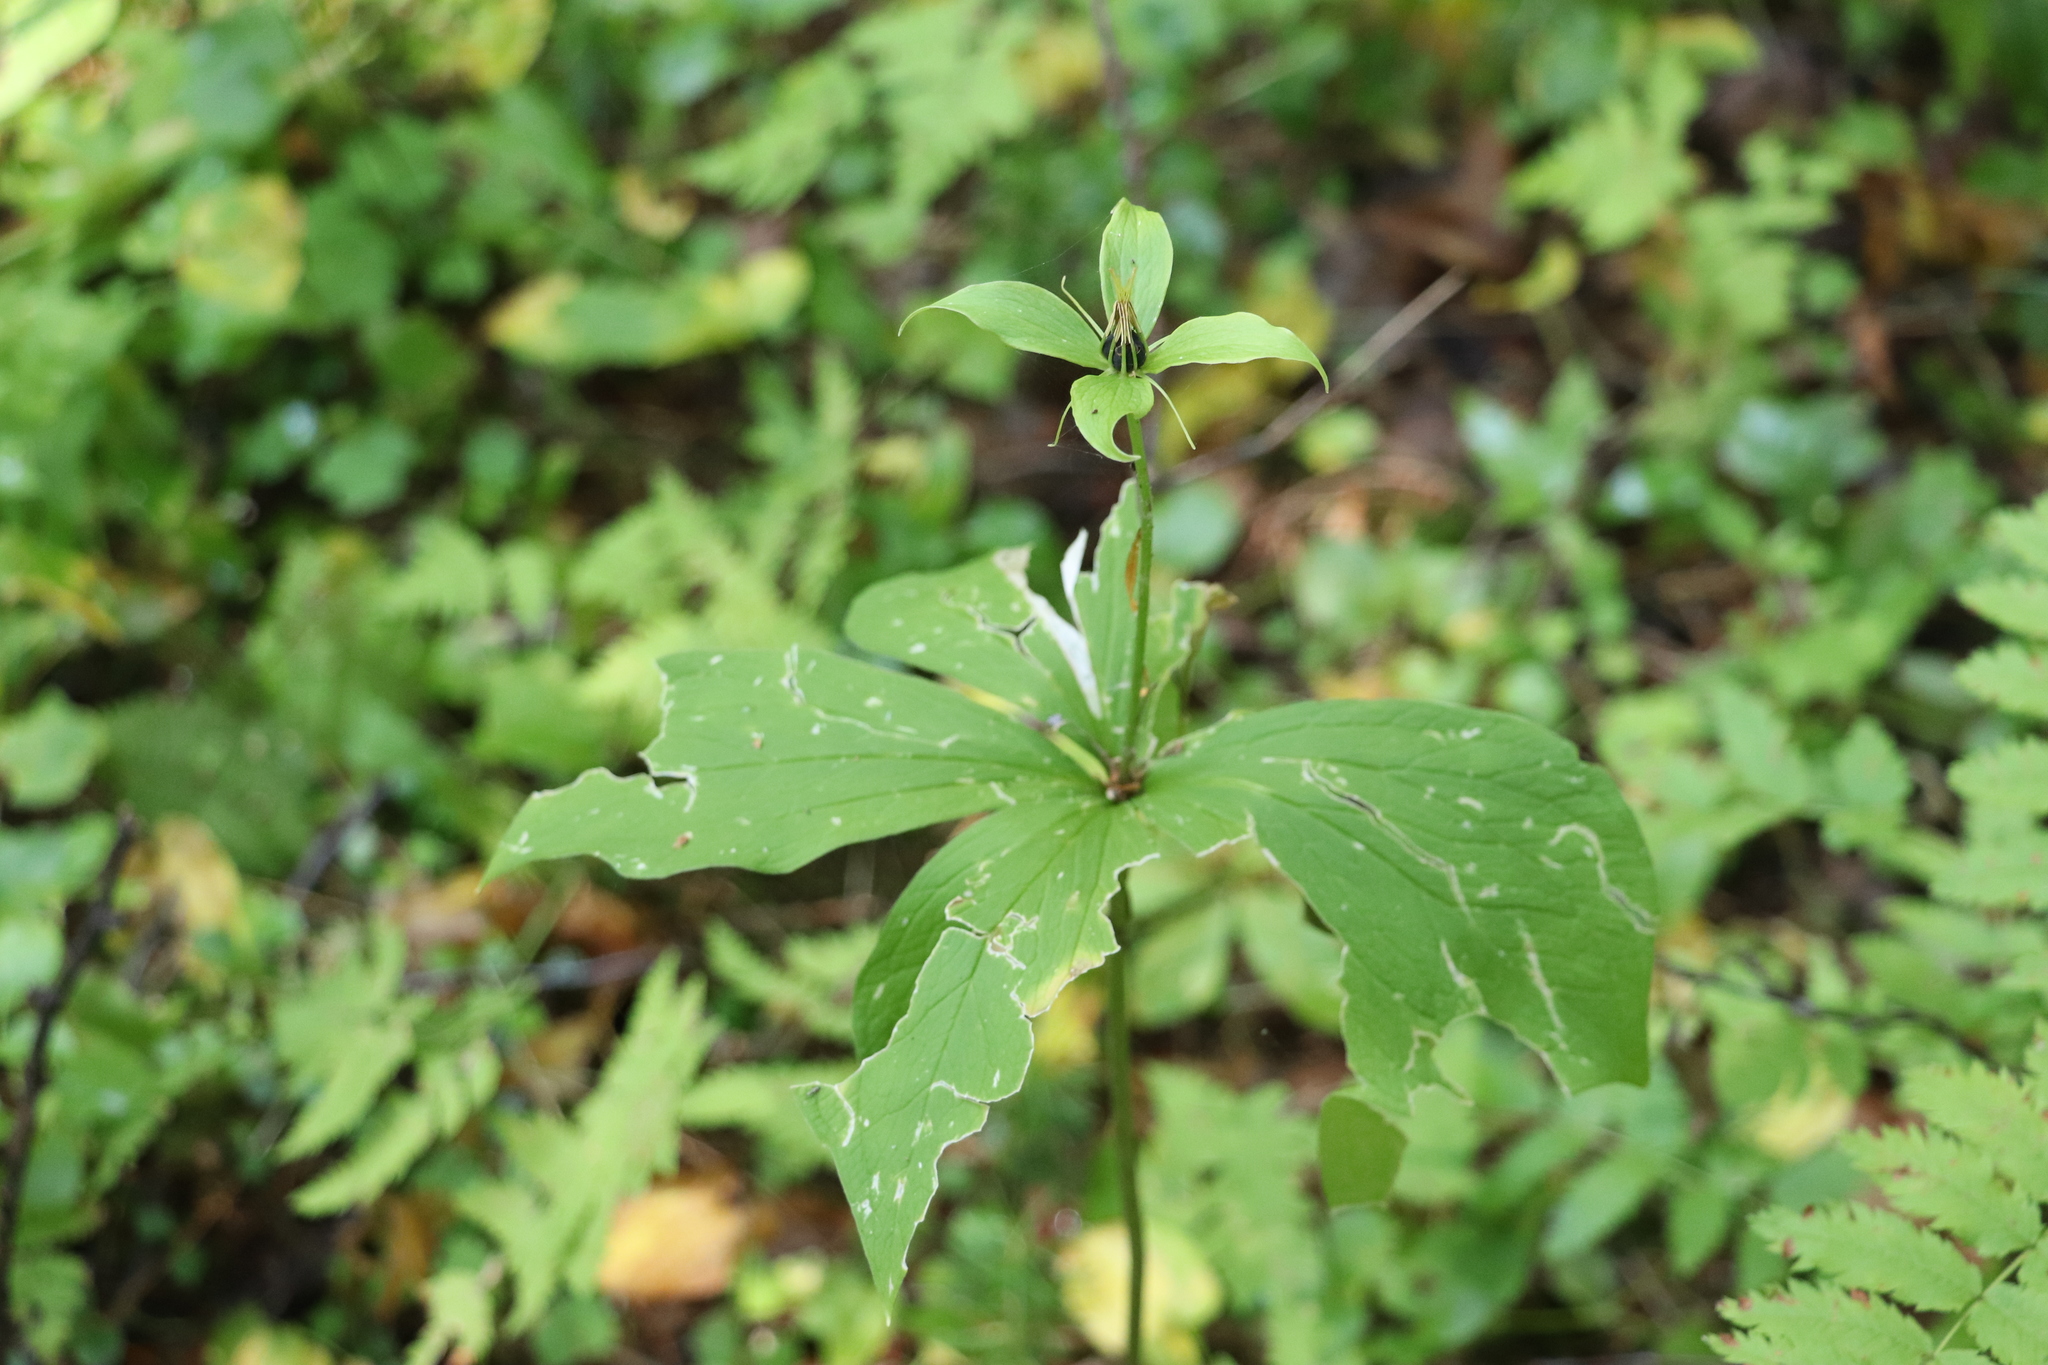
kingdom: Plantae
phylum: Tracheophyta
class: Liliopsida
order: Liliales
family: Melanthiaceae
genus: Paris
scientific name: Paris quadrifolia
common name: Herb-paris
